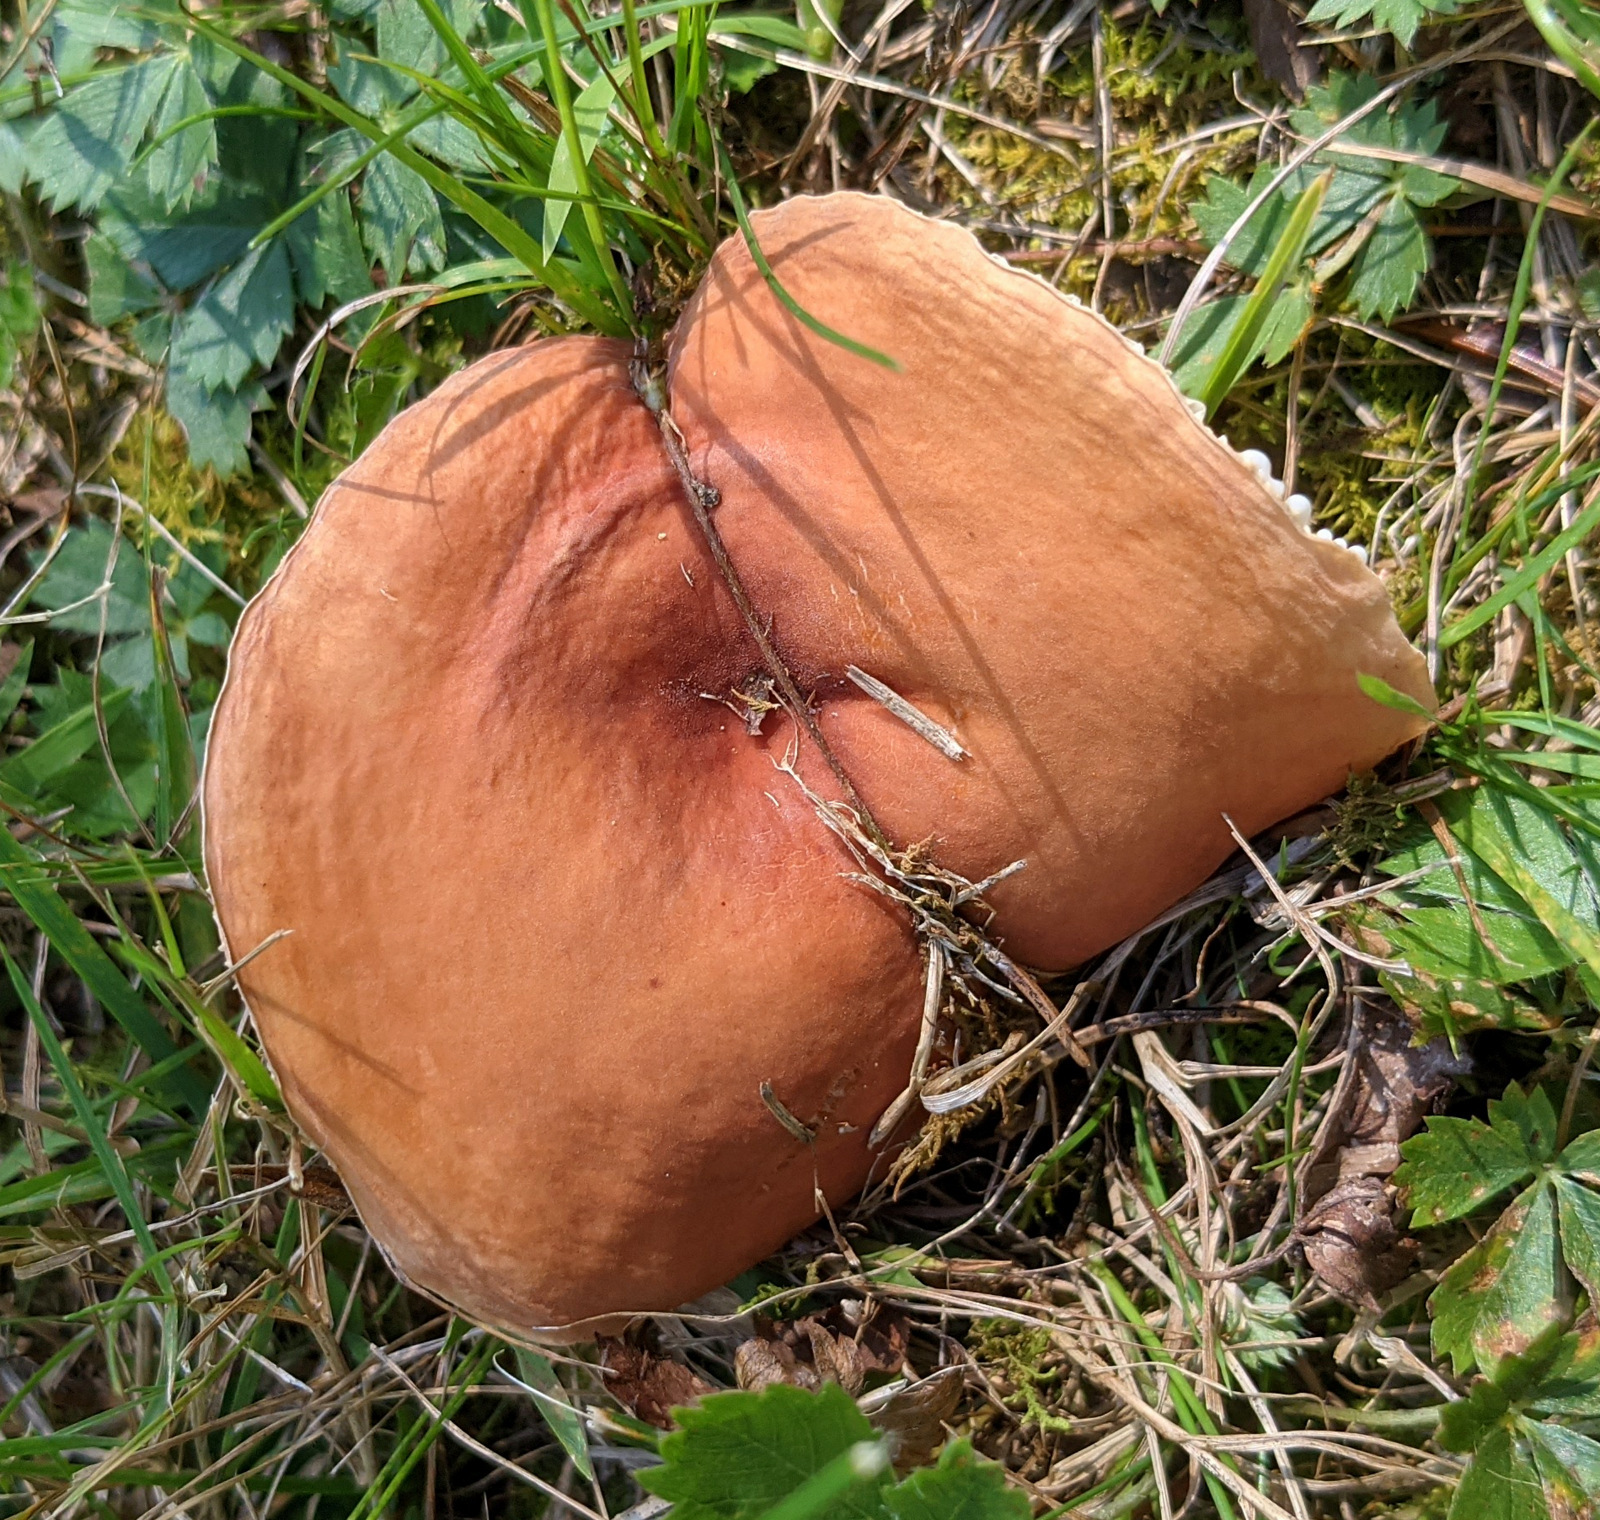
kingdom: Fungi
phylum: Basidiomycota
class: Agaricomycetes
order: Russulales
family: Russulaceae
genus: Lactarius
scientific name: Lactarius hygrophoroides
